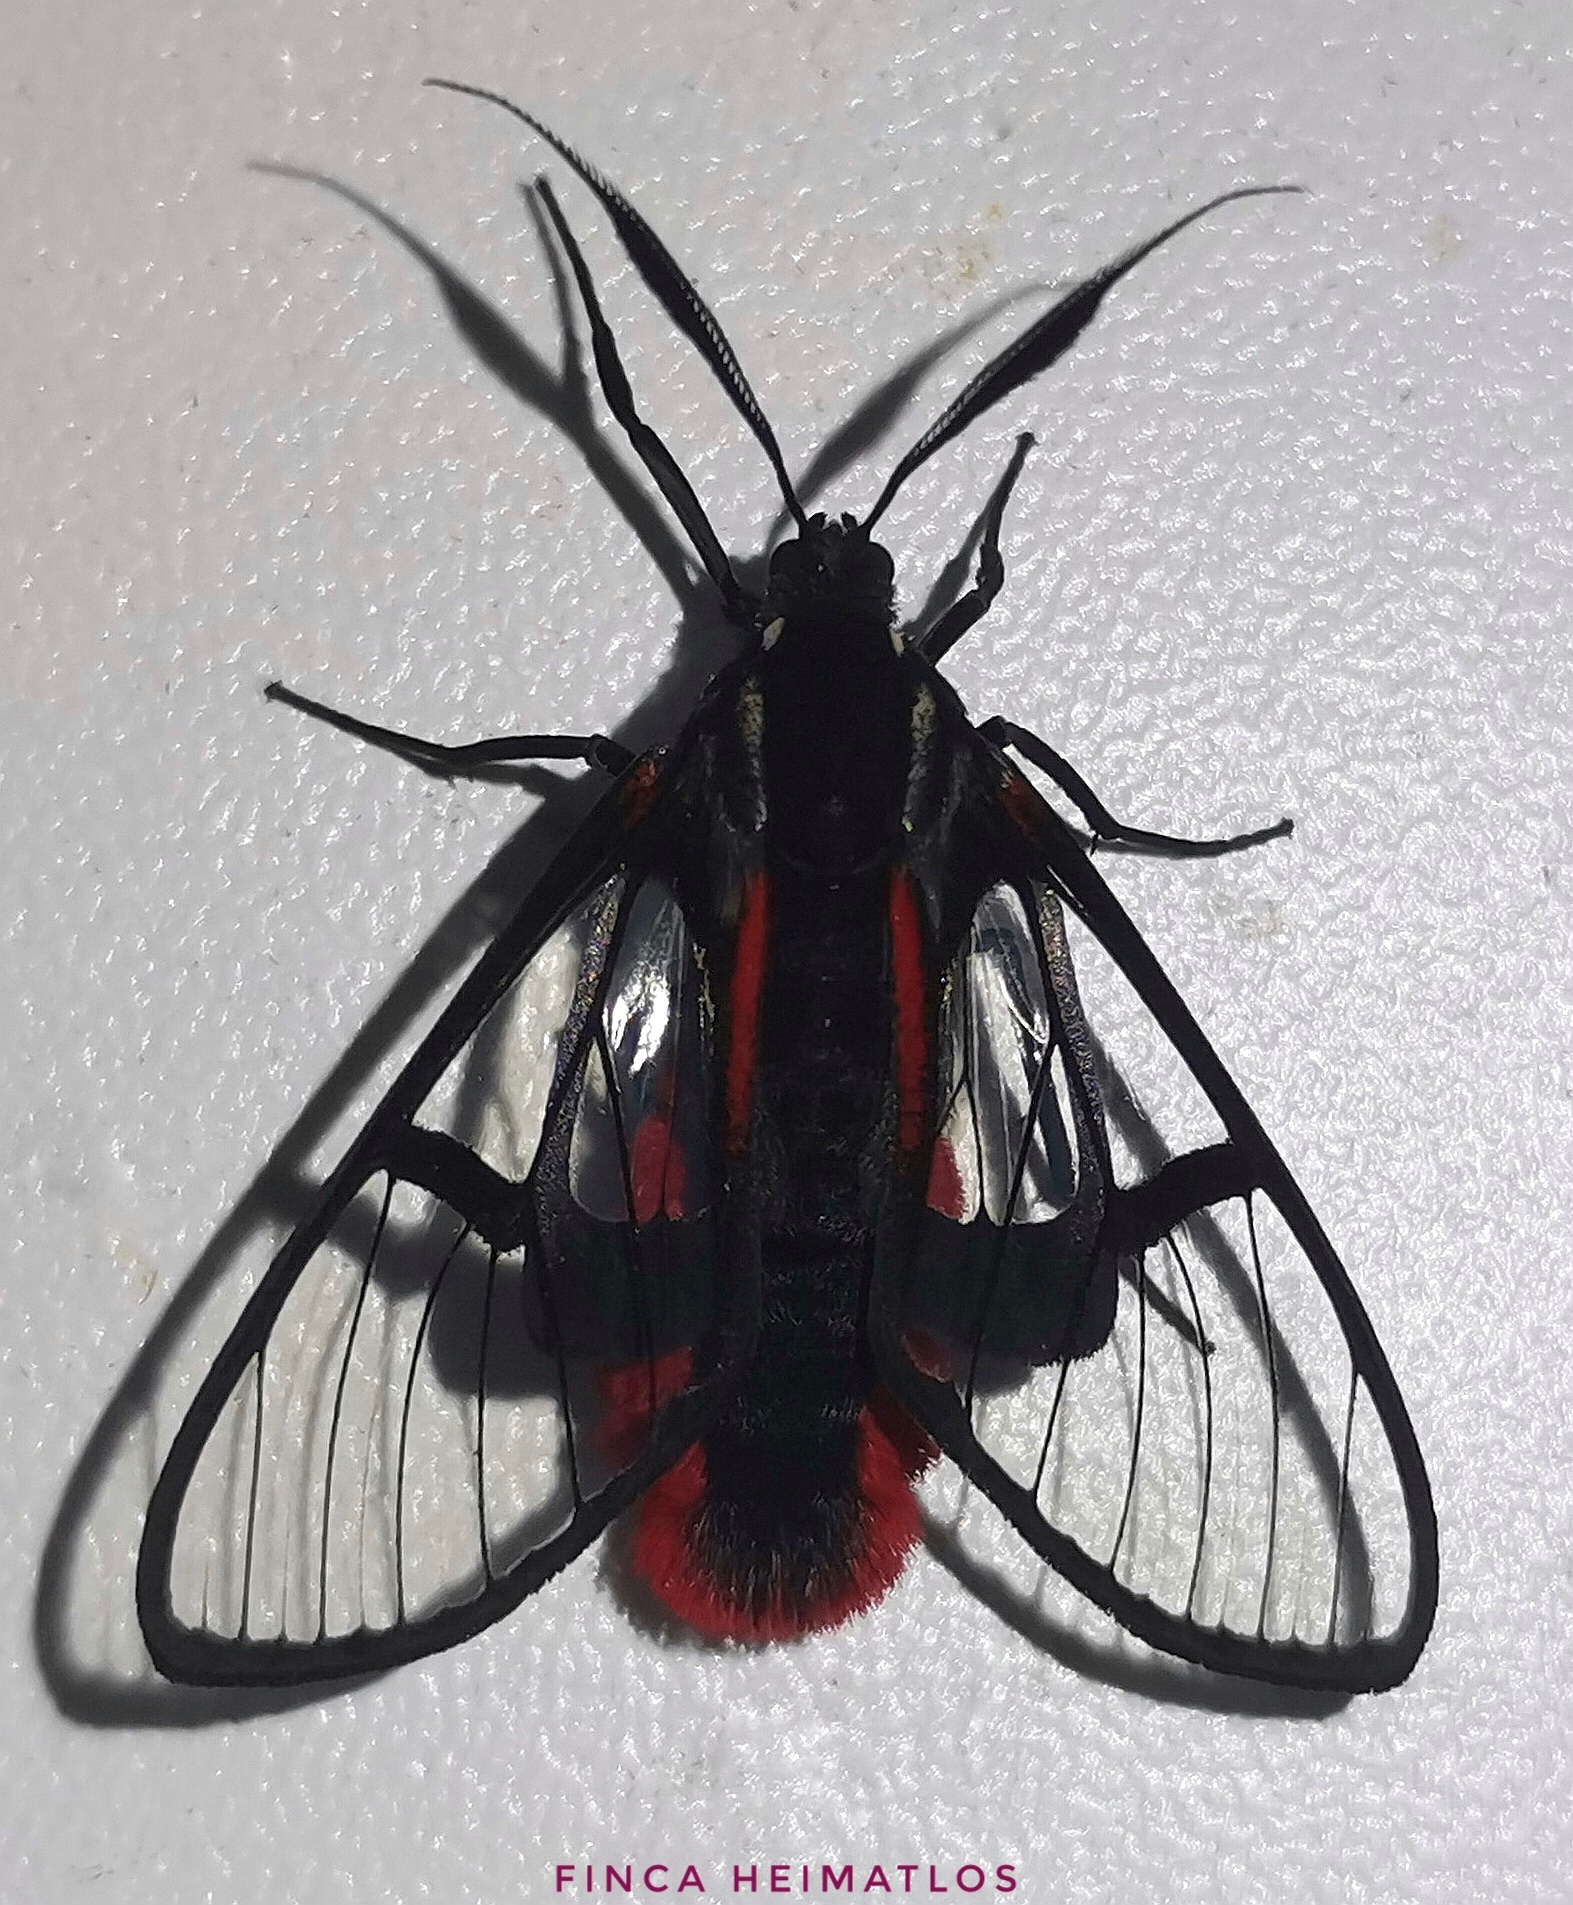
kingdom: Animalia
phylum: Arthropoda
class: Insecta
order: Lepidoptera
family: Erebidae
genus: Dinia
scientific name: Dinia eagrus
